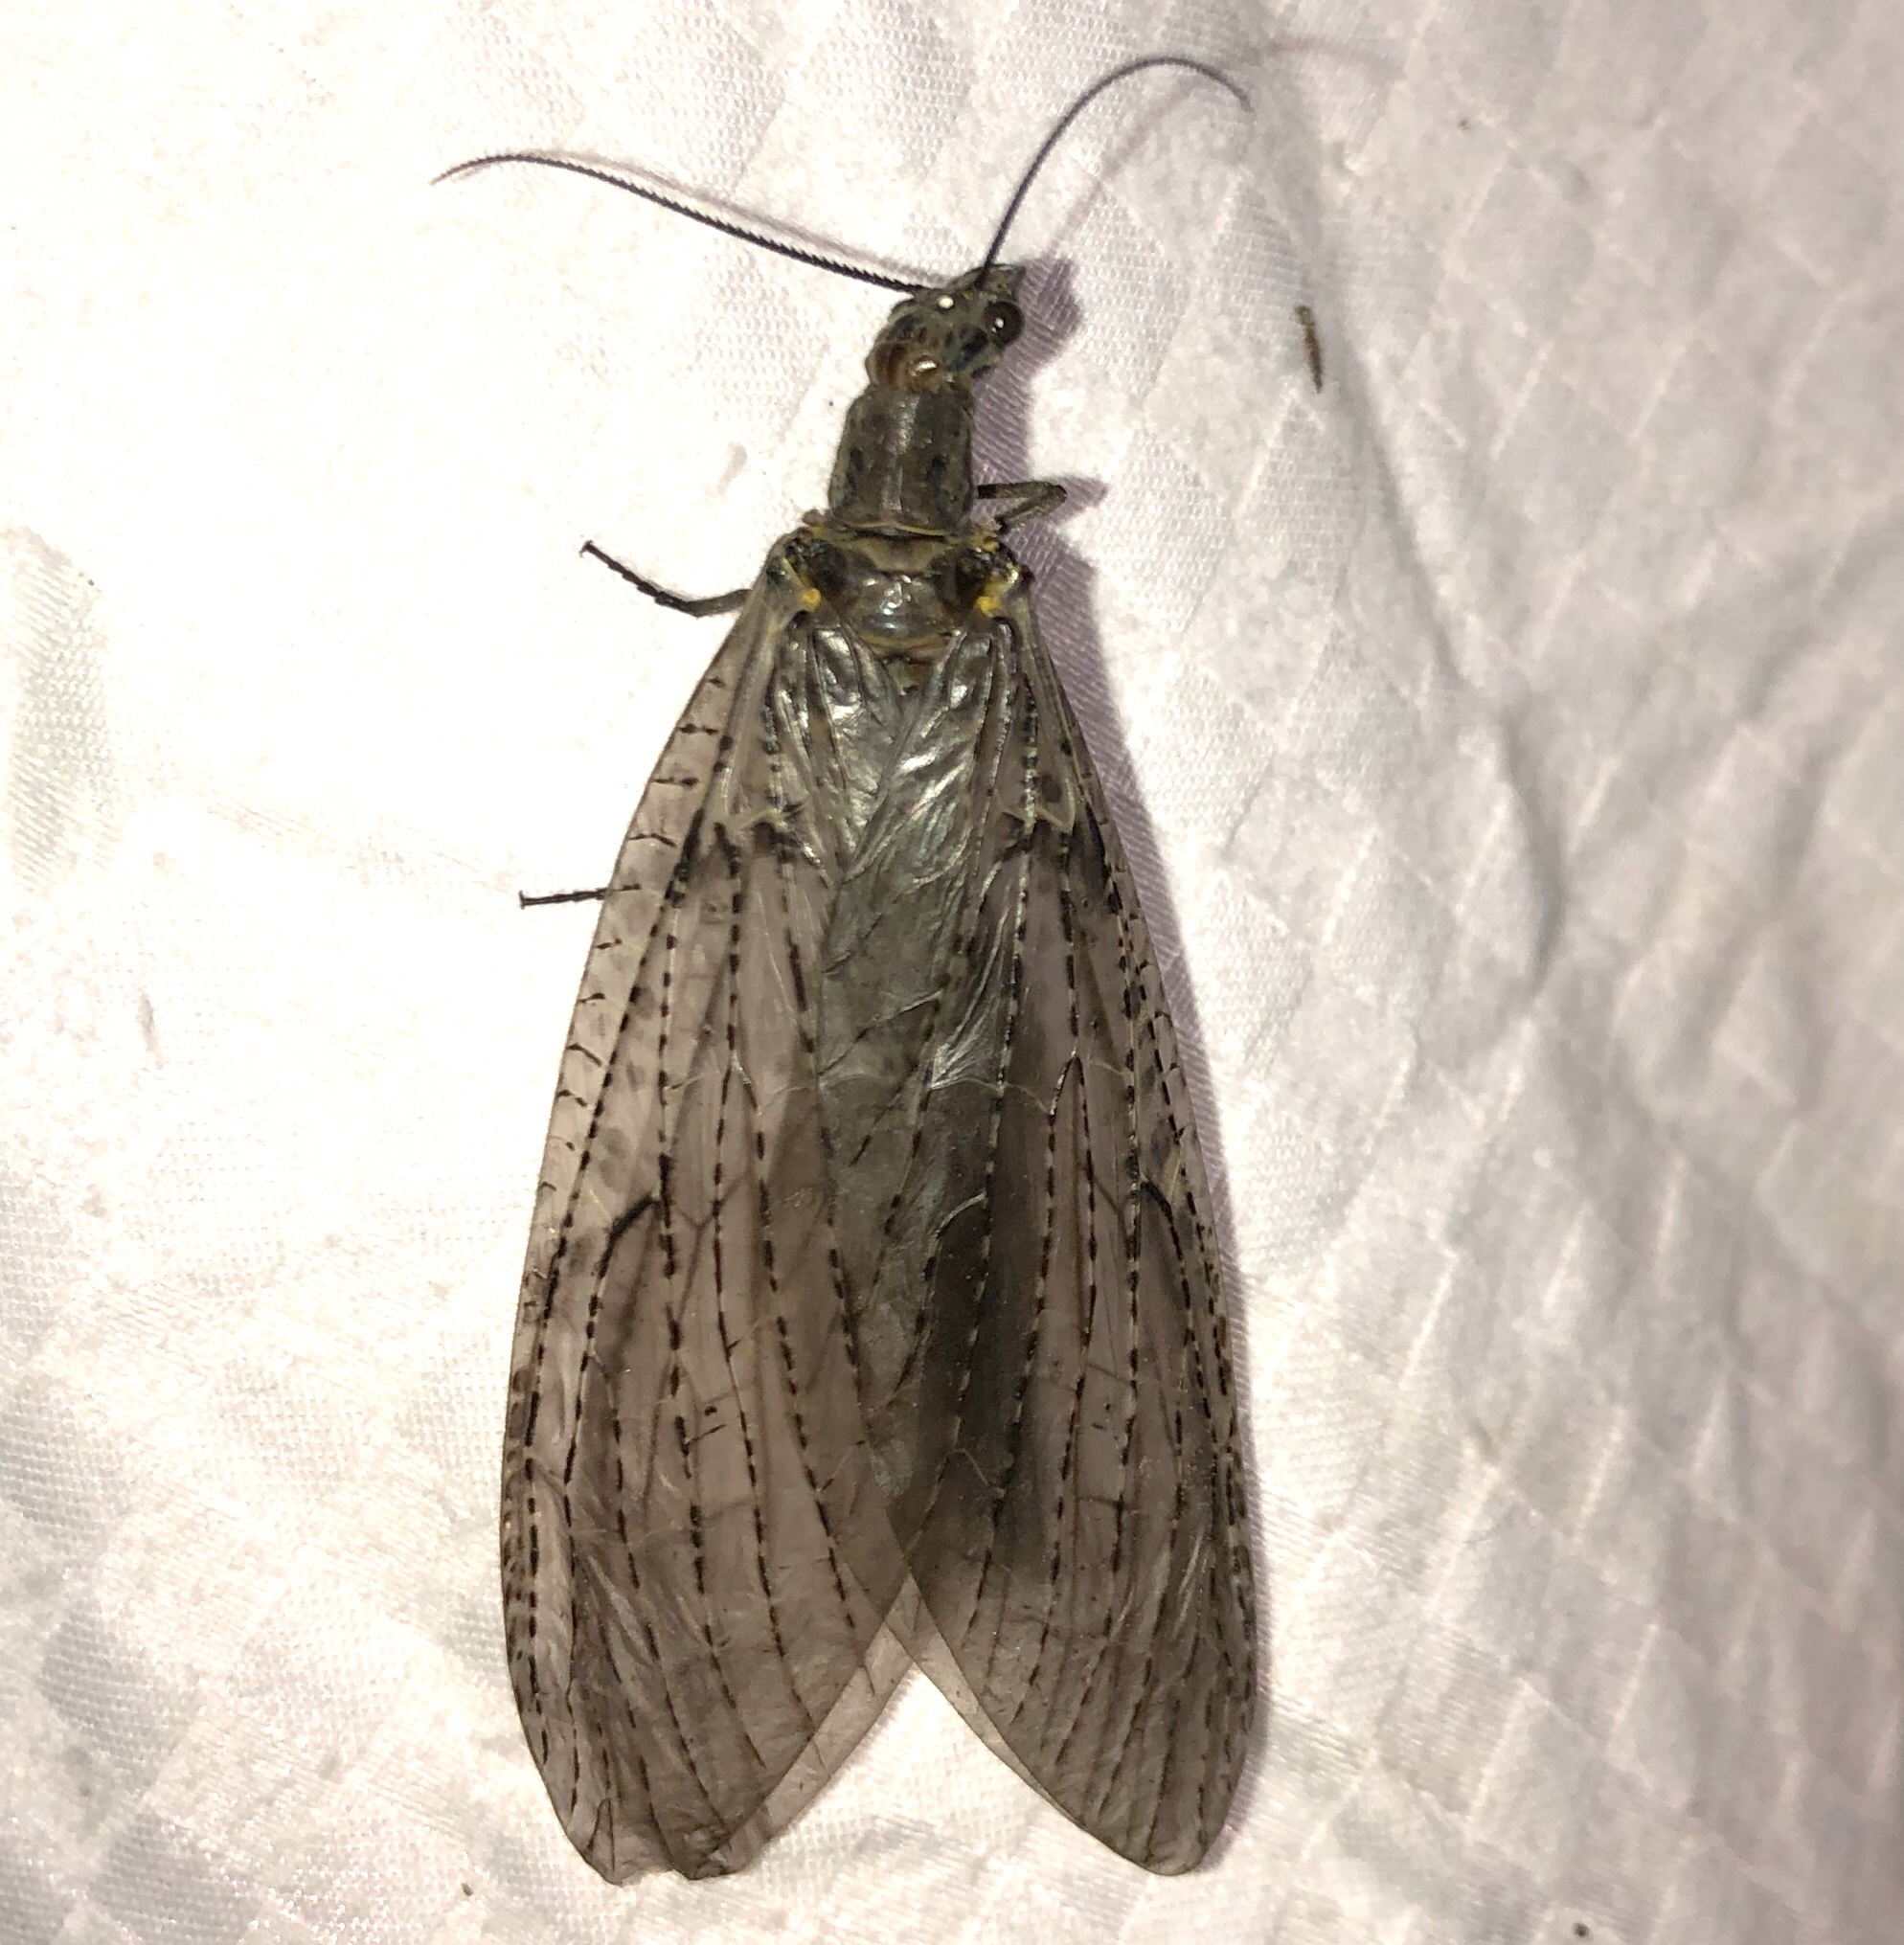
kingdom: Animalia
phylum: Arthropoda
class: Insecta
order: Megaloptera
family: Corydalidae
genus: Chauliodes
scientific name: Chauliodes rastricornis
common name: Spring fishfly
